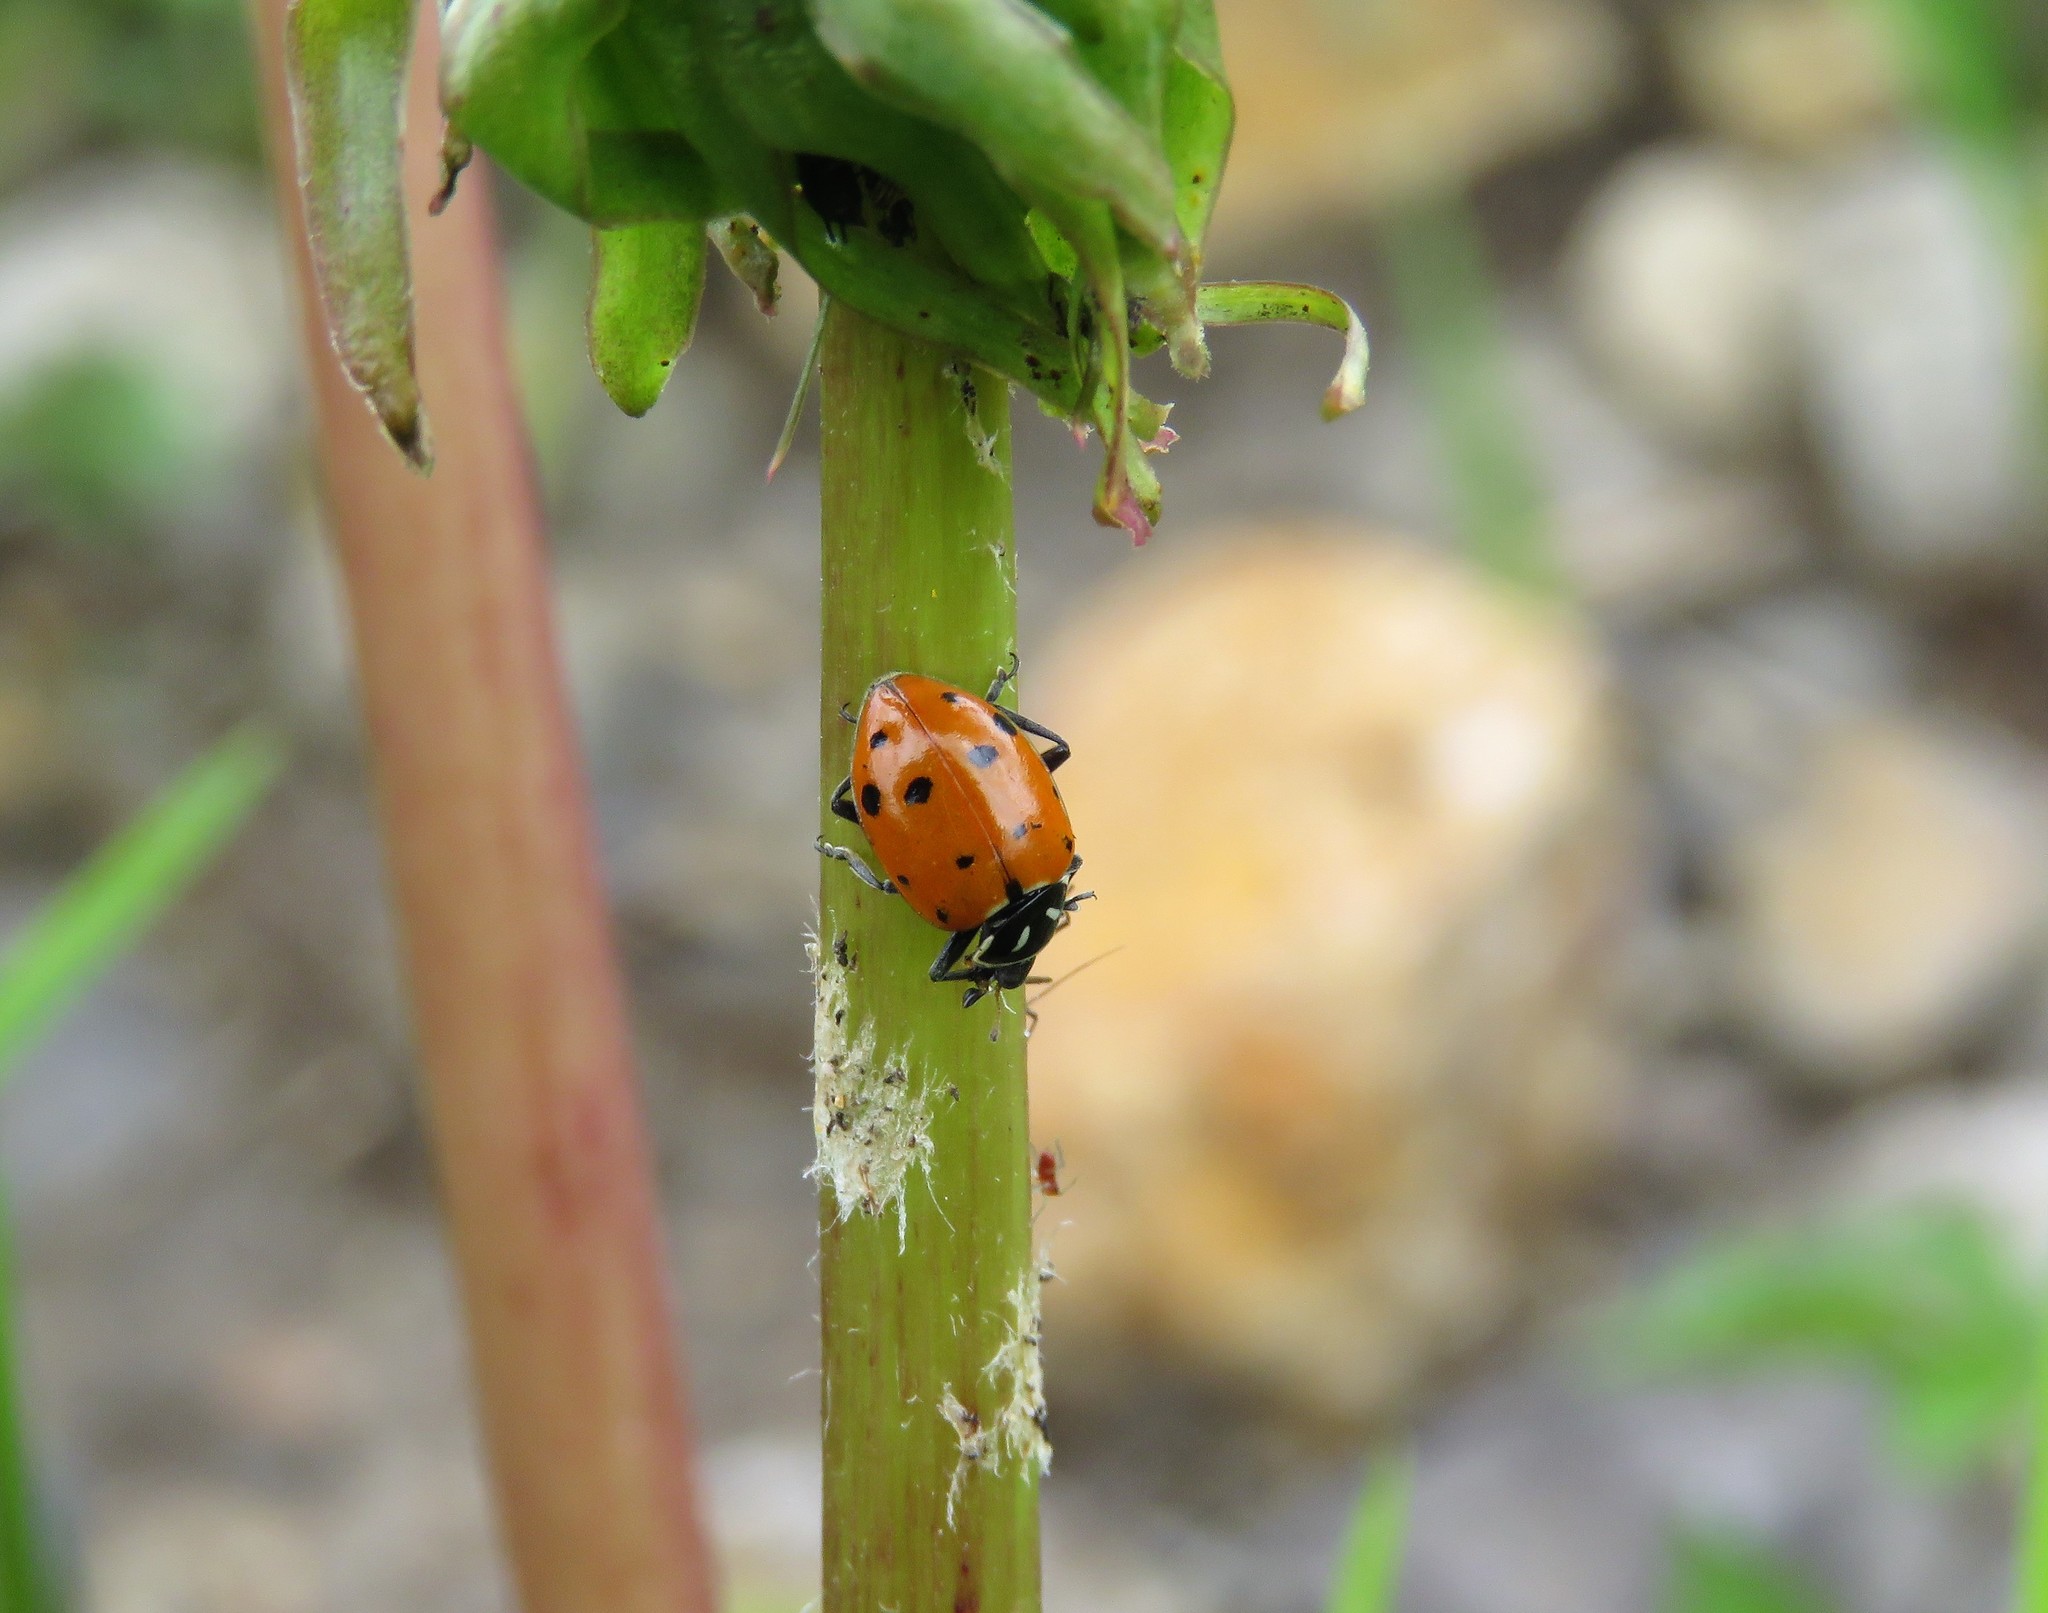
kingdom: Animalia
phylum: Arthropoda
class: Insecta
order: Coleoptera
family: Coccinellidae
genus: Hippodamia
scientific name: Hippodamia convergens
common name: Convergent lady beetle
